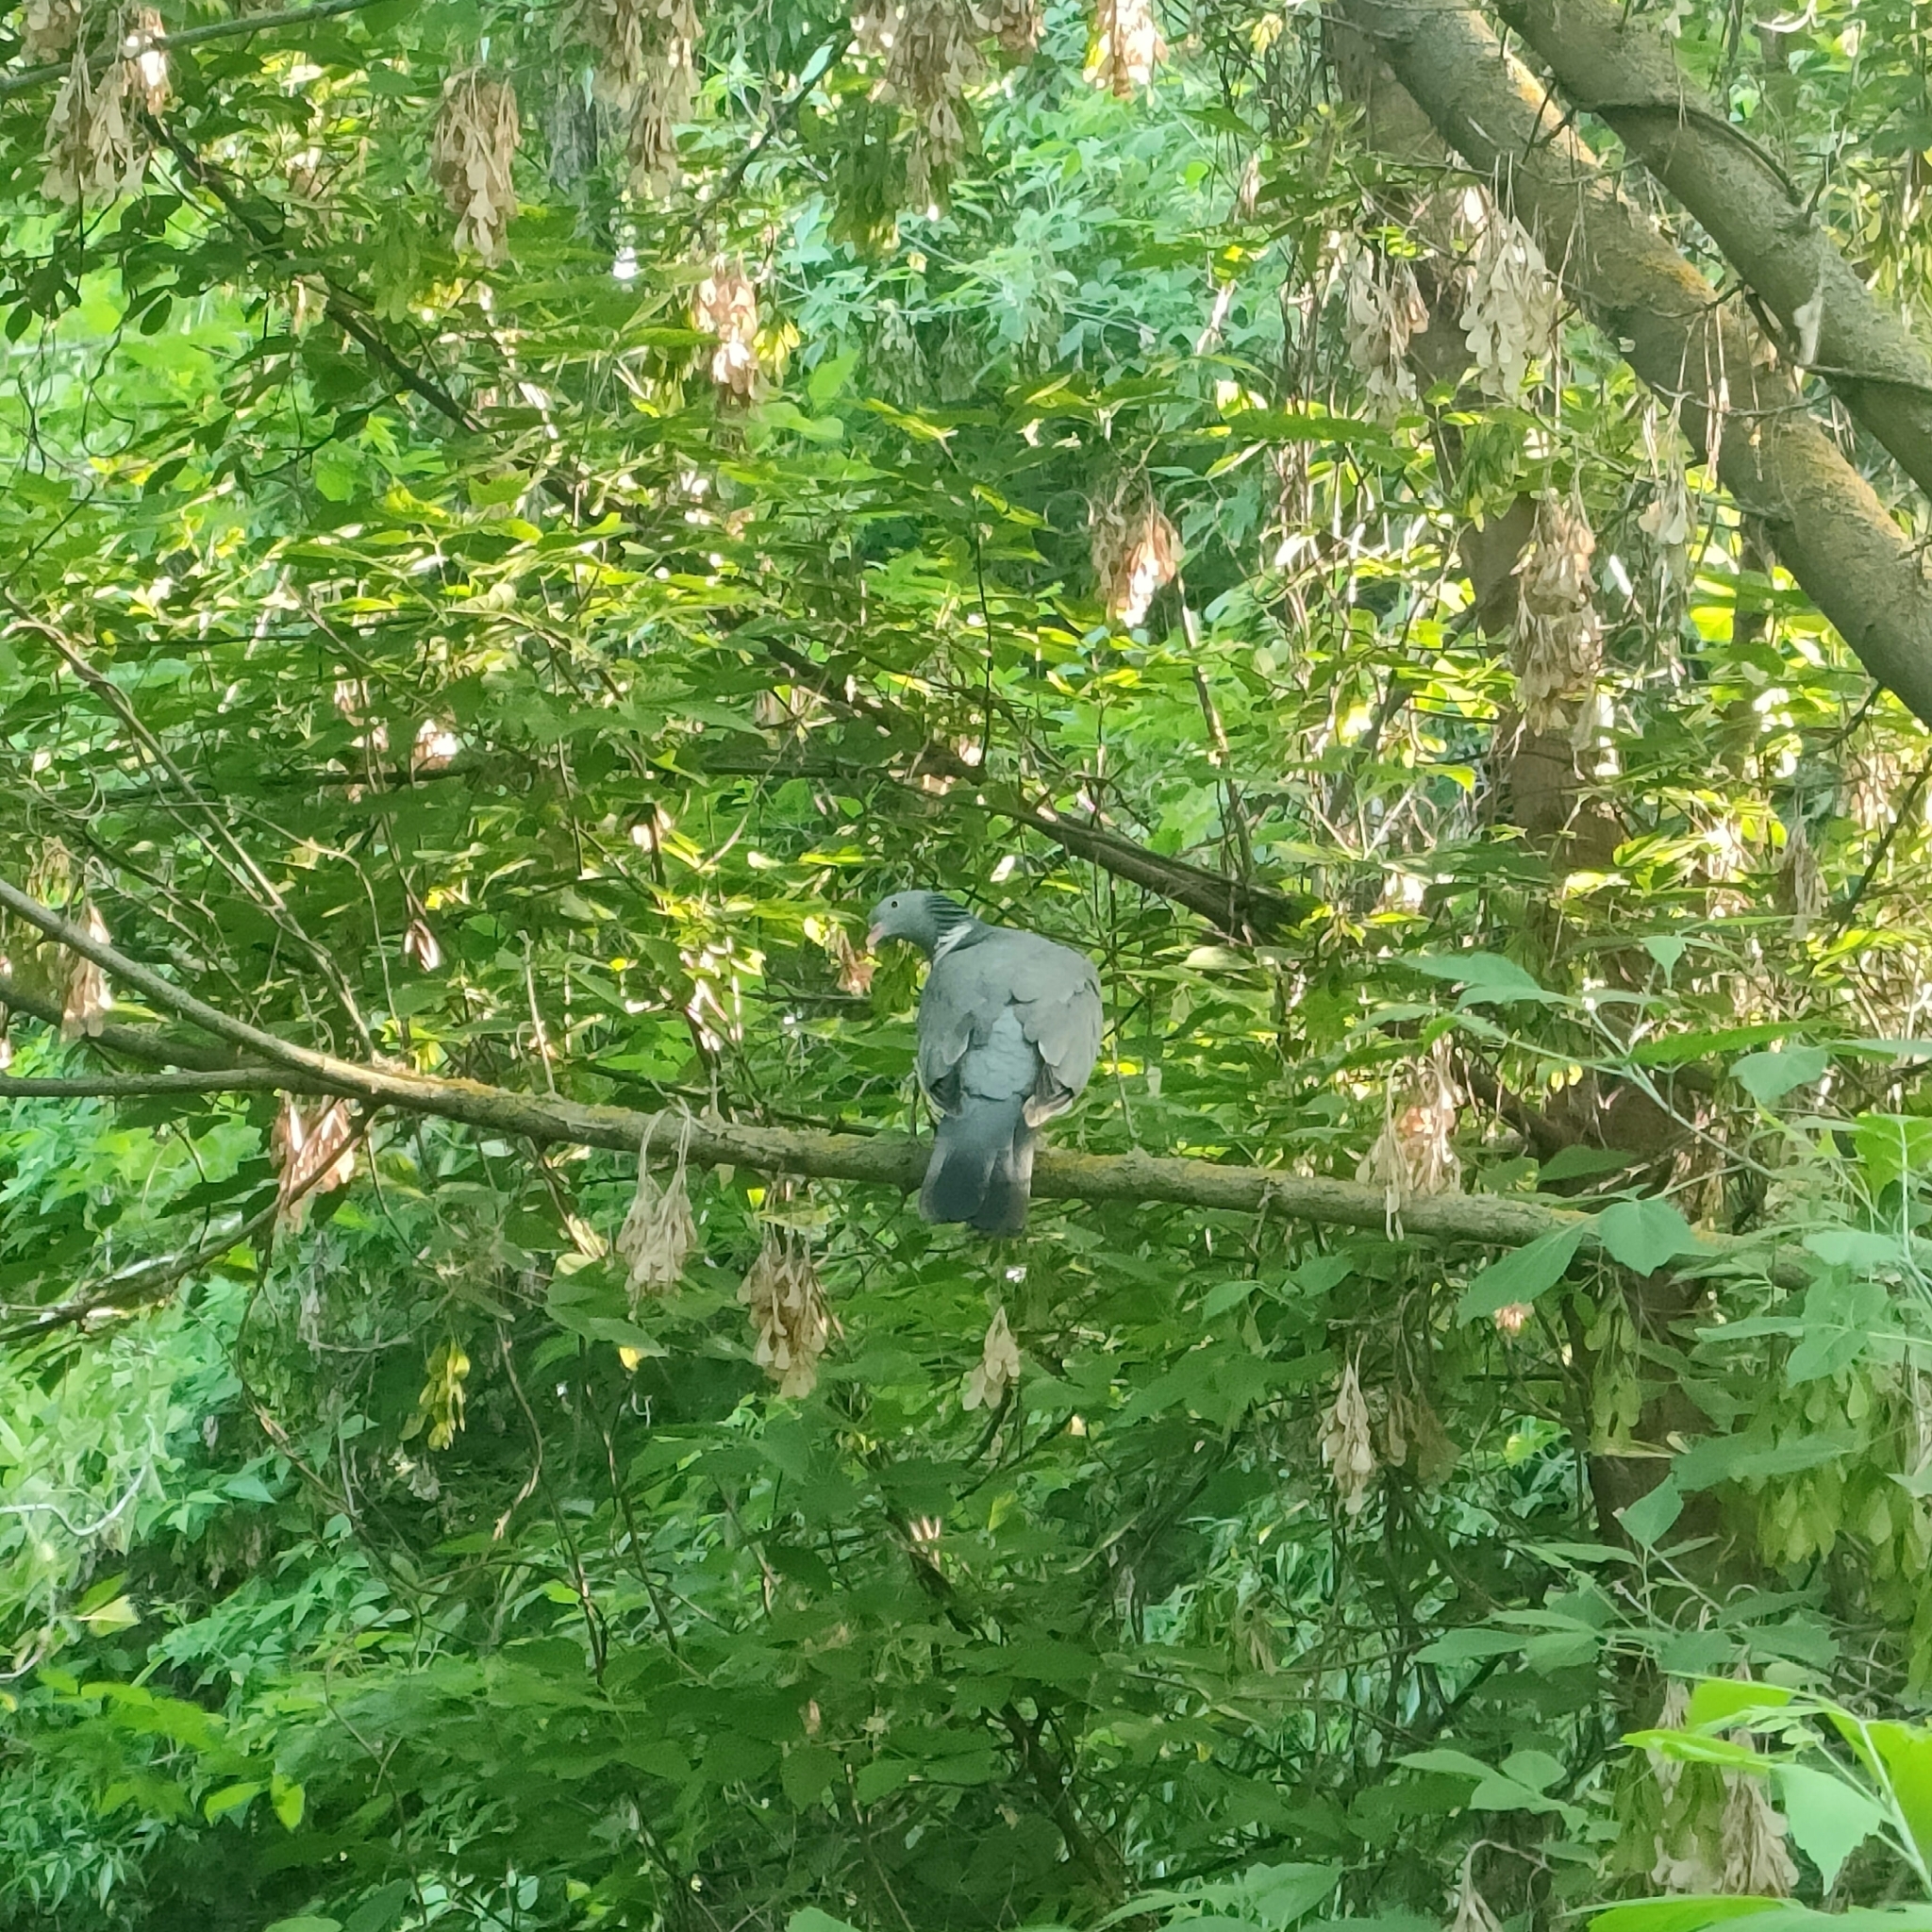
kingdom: Animalia
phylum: Chordata
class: Aves
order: Columbiformes
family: Columbidae
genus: Columba
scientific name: Columba palumbus
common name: Common wood pigeon
